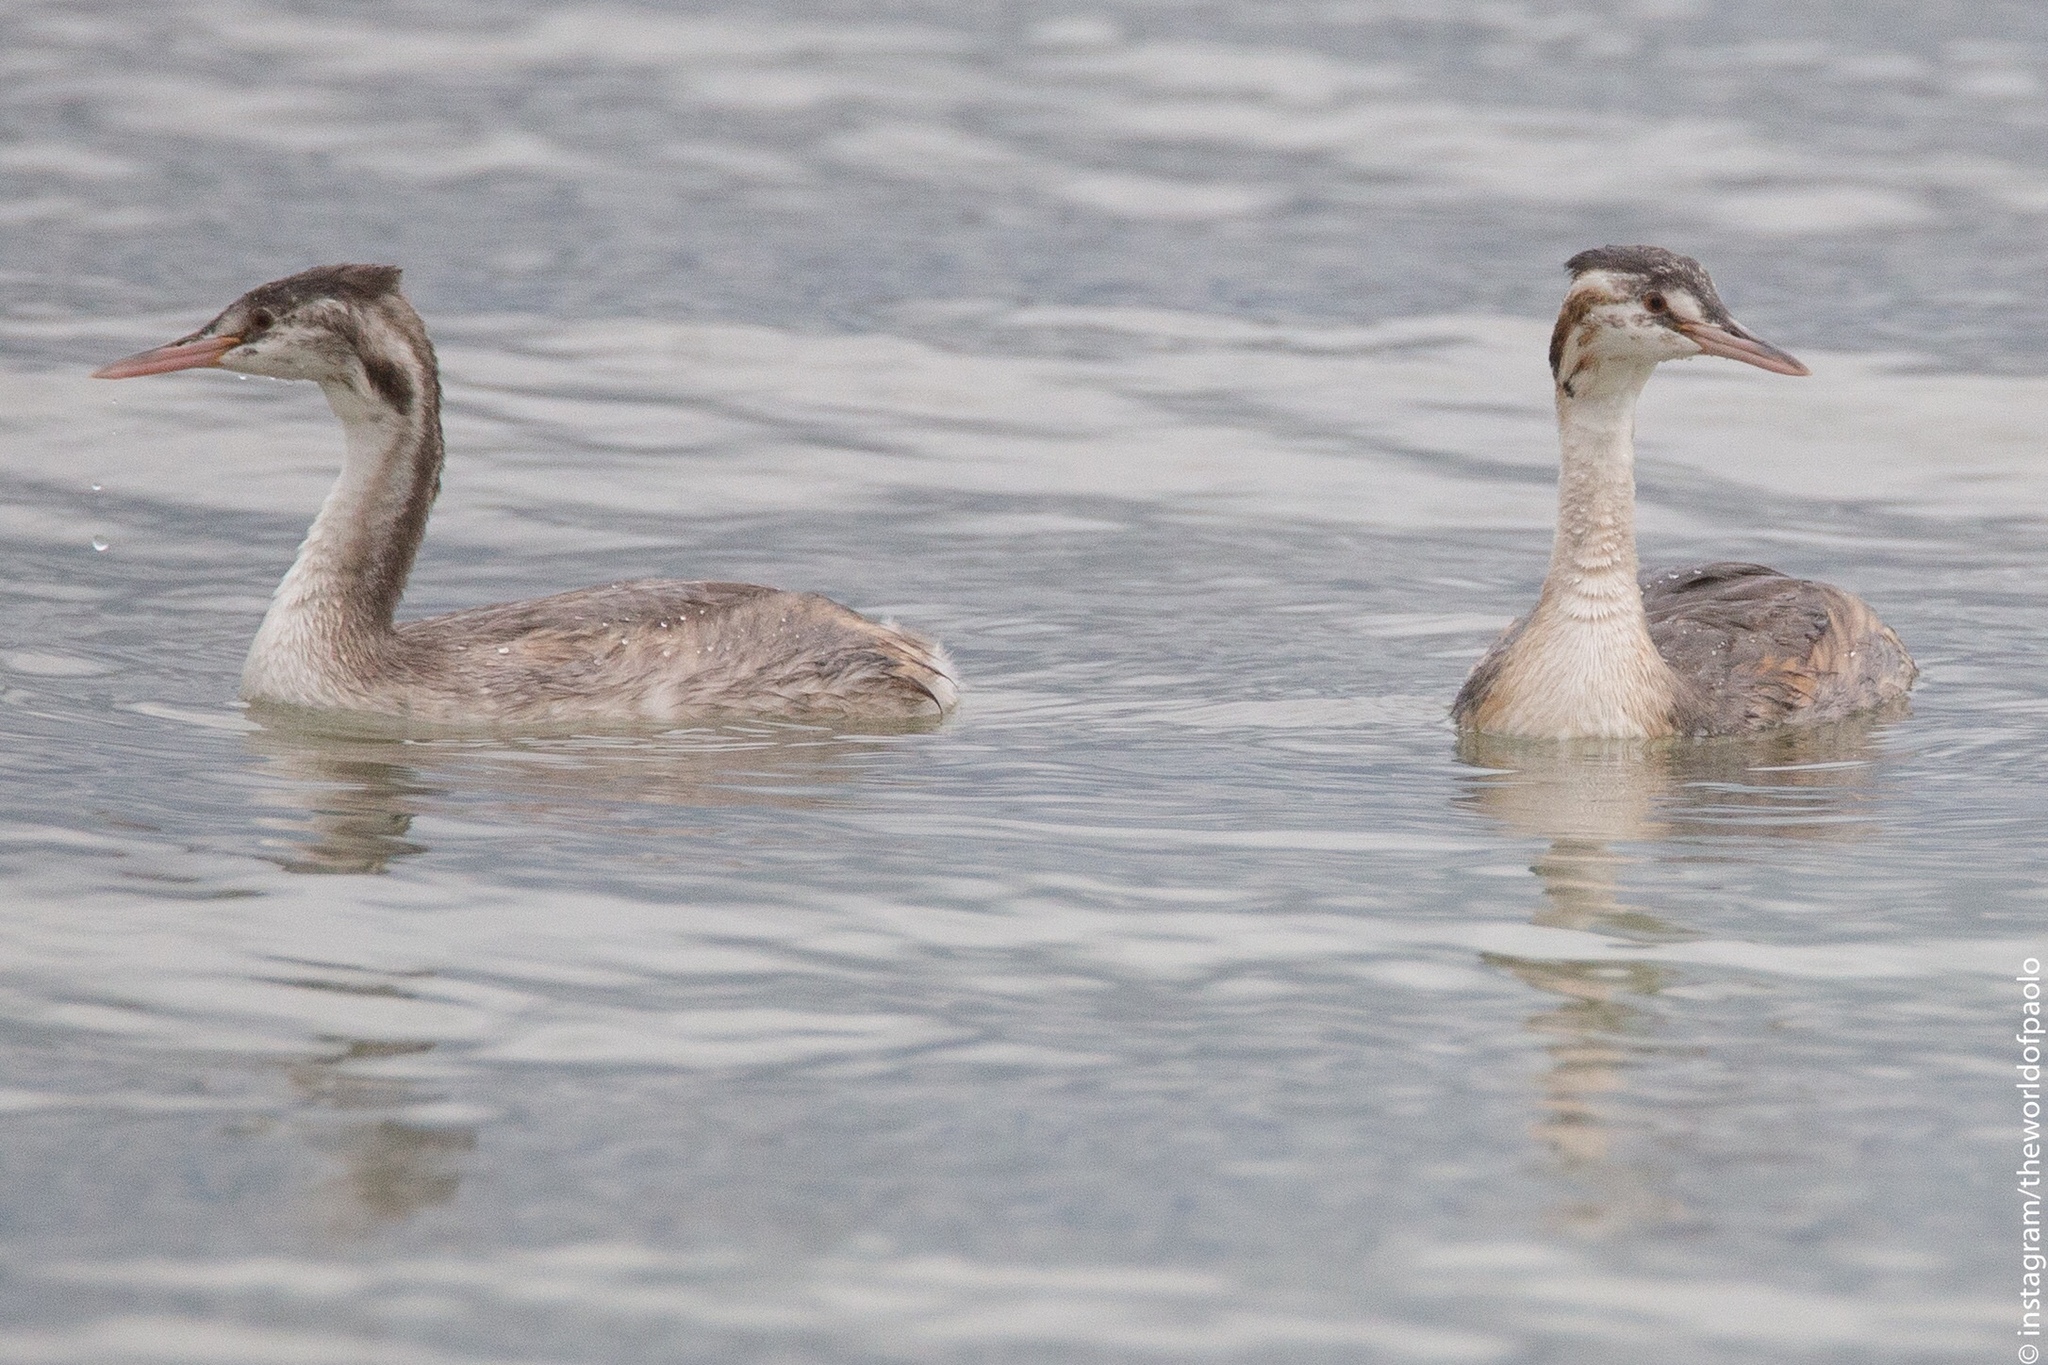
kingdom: Animalia
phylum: Chordata
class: Aves
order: Podicipediformes
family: Podicipedidae
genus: Podiceps
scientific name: Podiceps cristatus
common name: Great crested grebe
